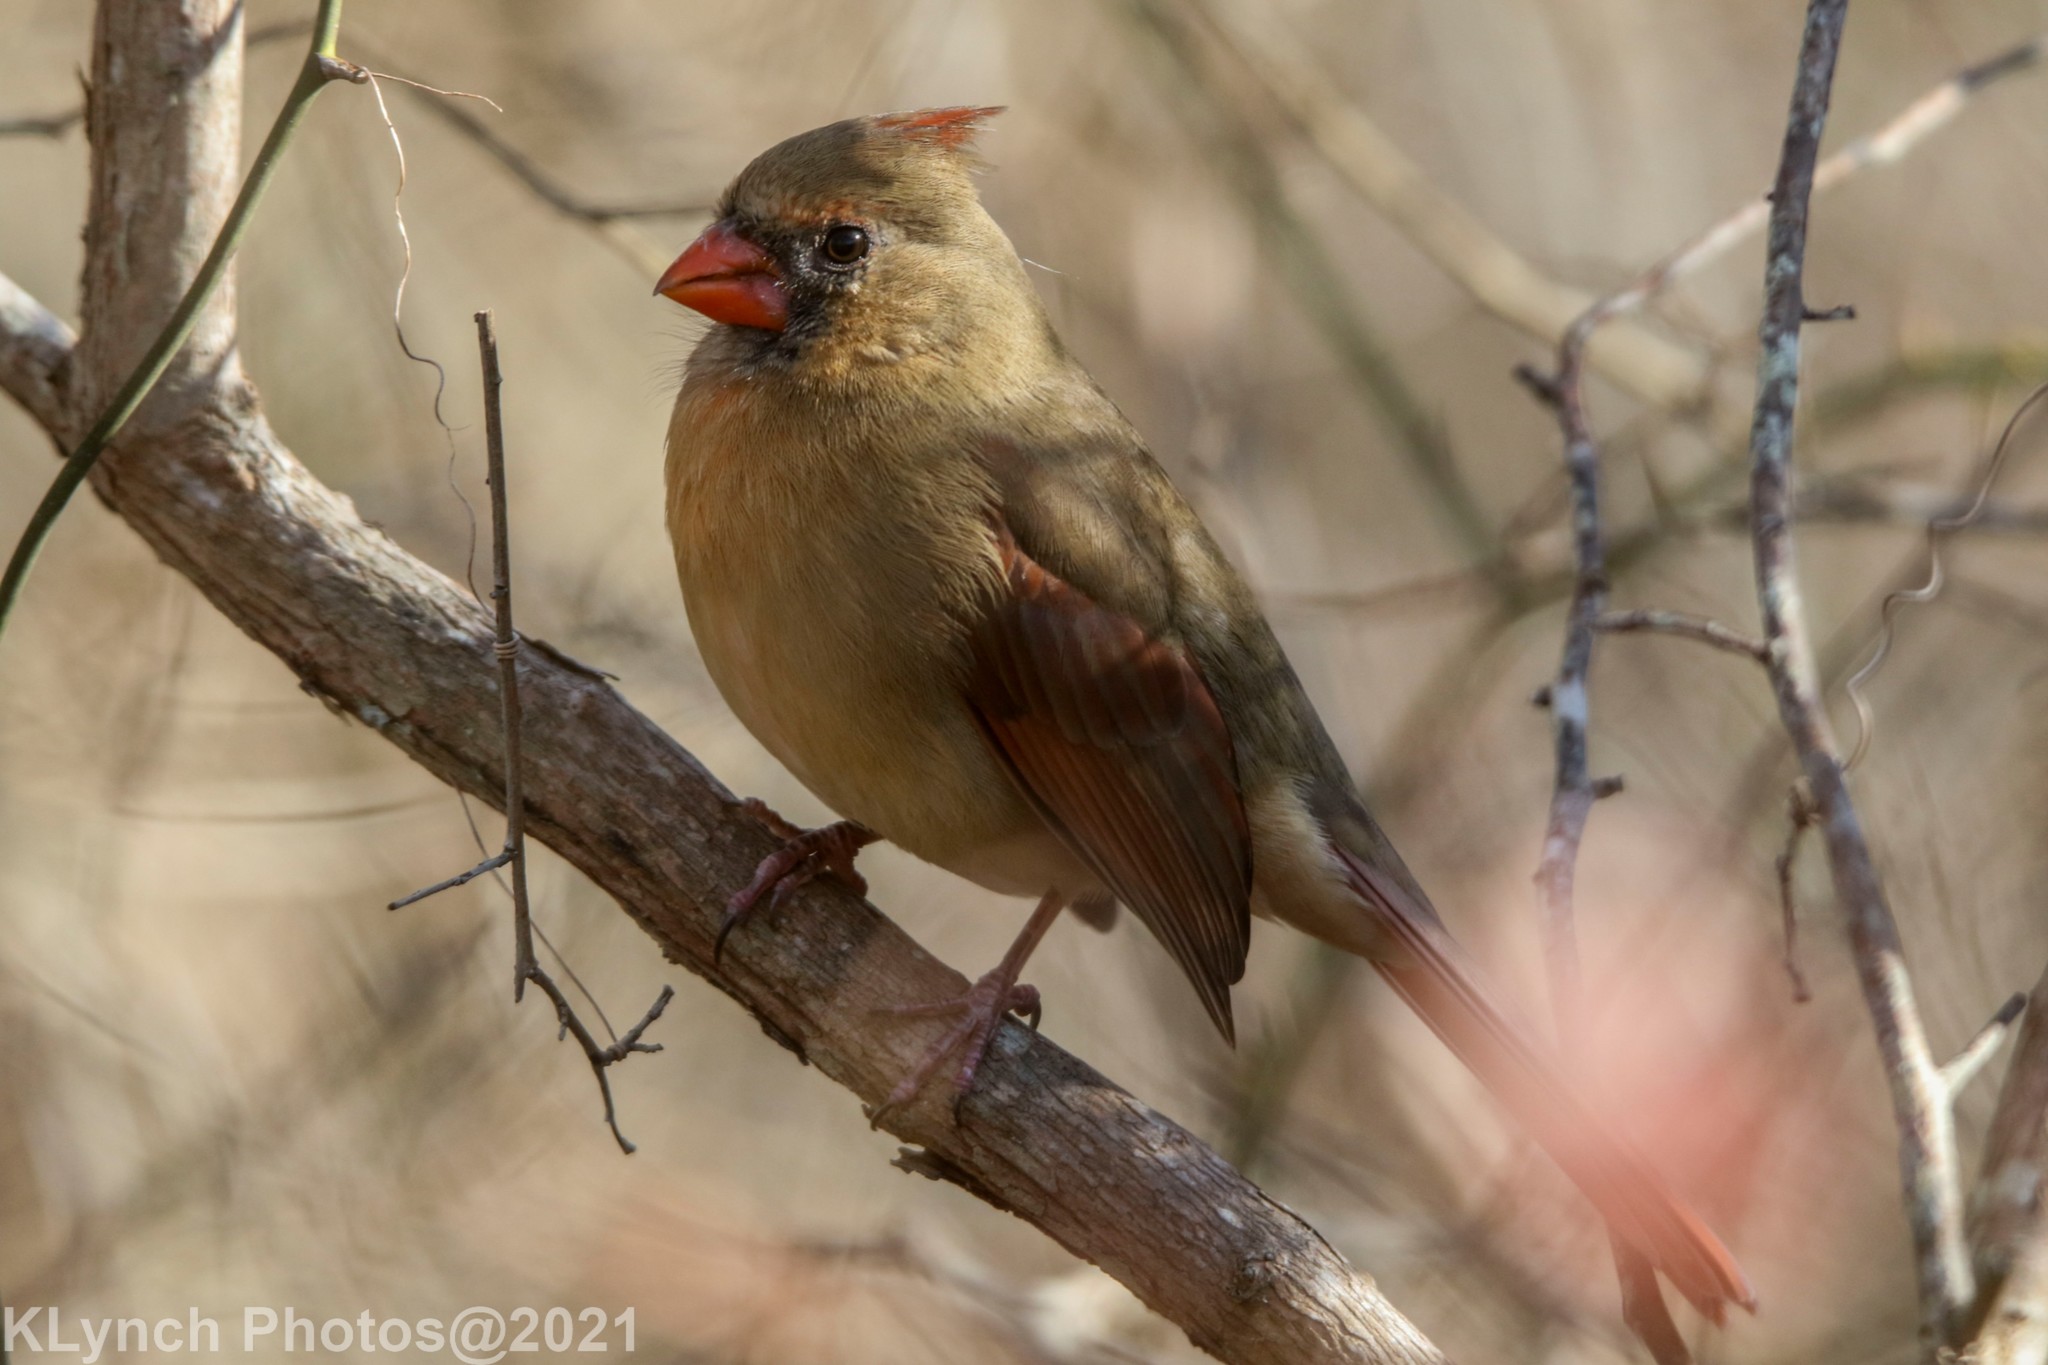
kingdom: Animalia
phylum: Chordata
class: Aves
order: Passeriformes
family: Cardinalidae
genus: Cardinalis
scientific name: Cardinalis cardinalis
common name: Northern cardinal
